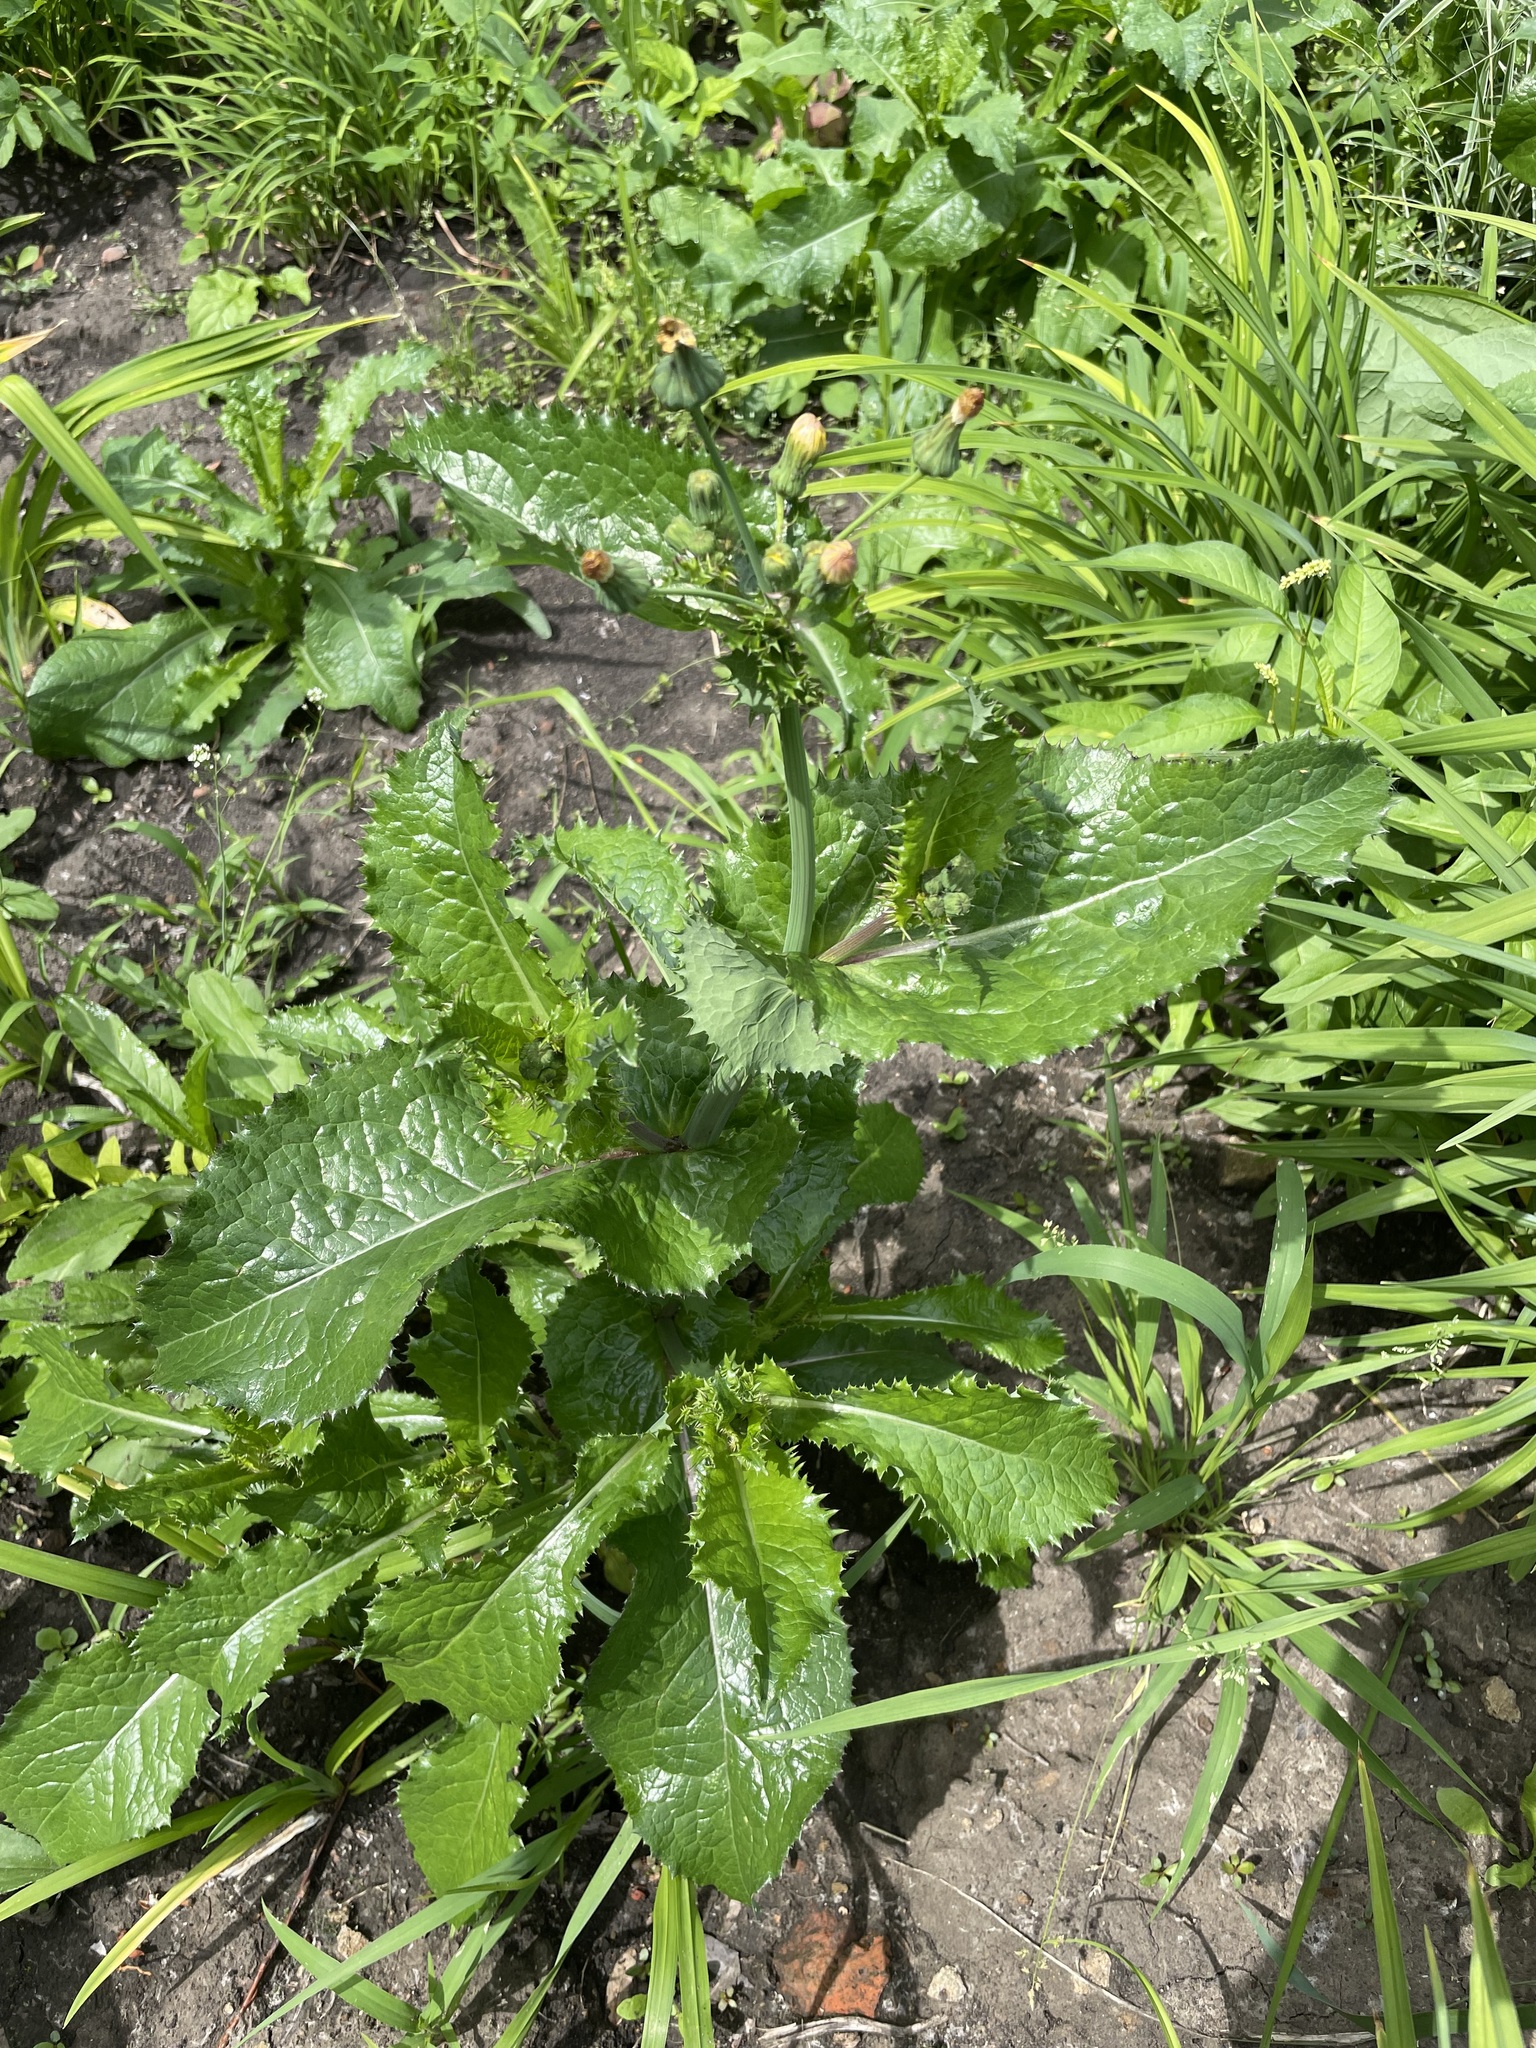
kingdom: Plantae
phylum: Tracheophyta
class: Magnoliopsida
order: Asterales
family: Asteraceae
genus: Sonchus
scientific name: Sonchus asper
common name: Prickly sow-thistle
